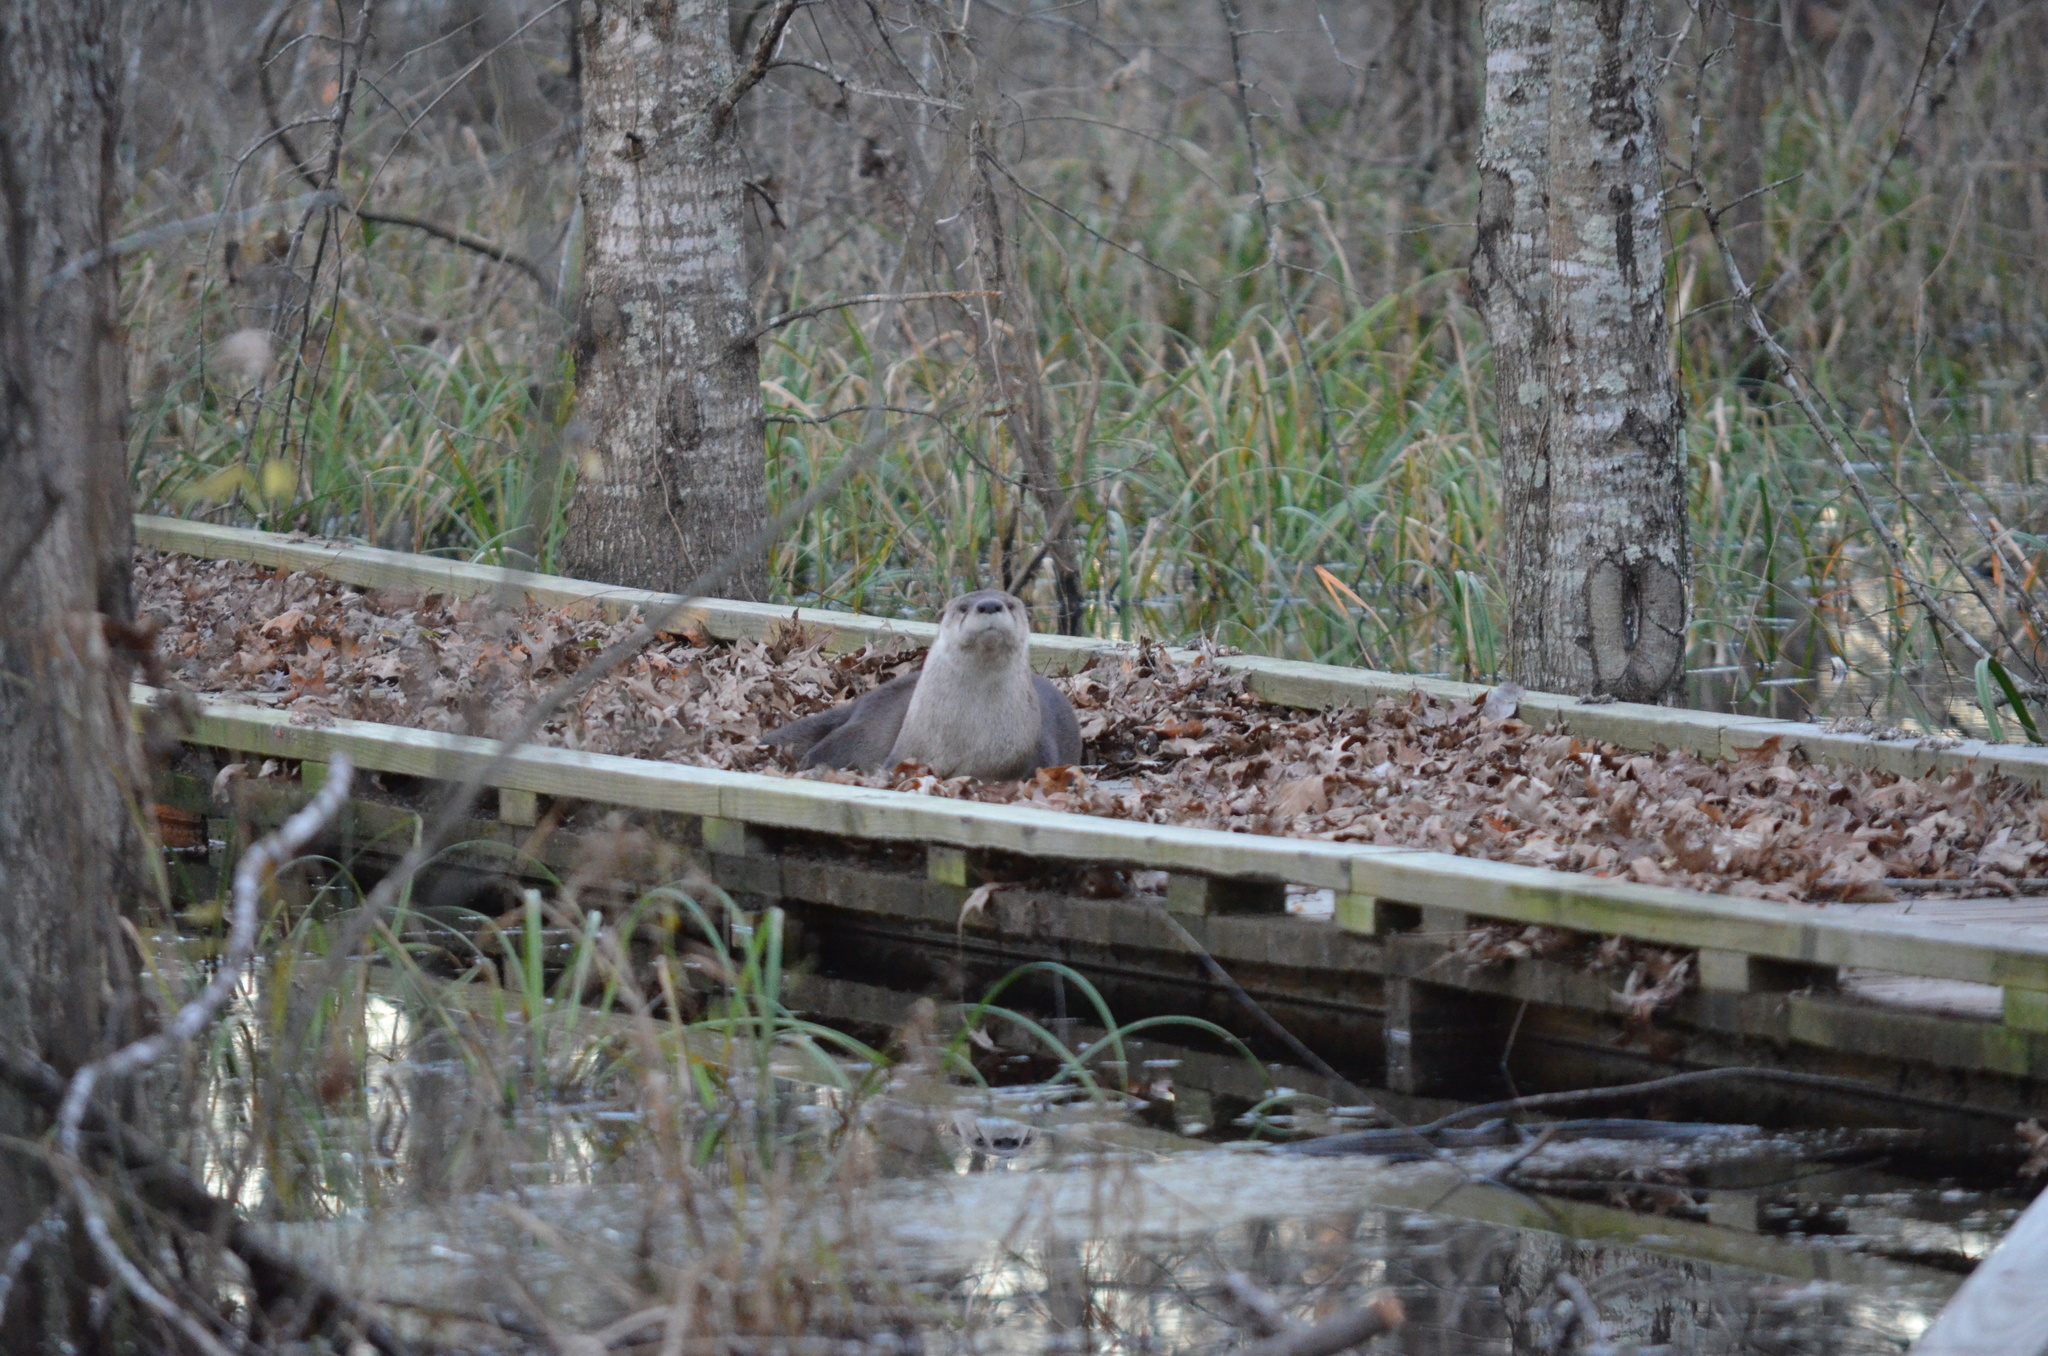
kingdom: Animalia
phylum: Chordata
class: Mammalia
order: Carnivora
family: Mustelidae
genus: Lontra
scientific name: Lontra canadensis
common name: North american river otter
